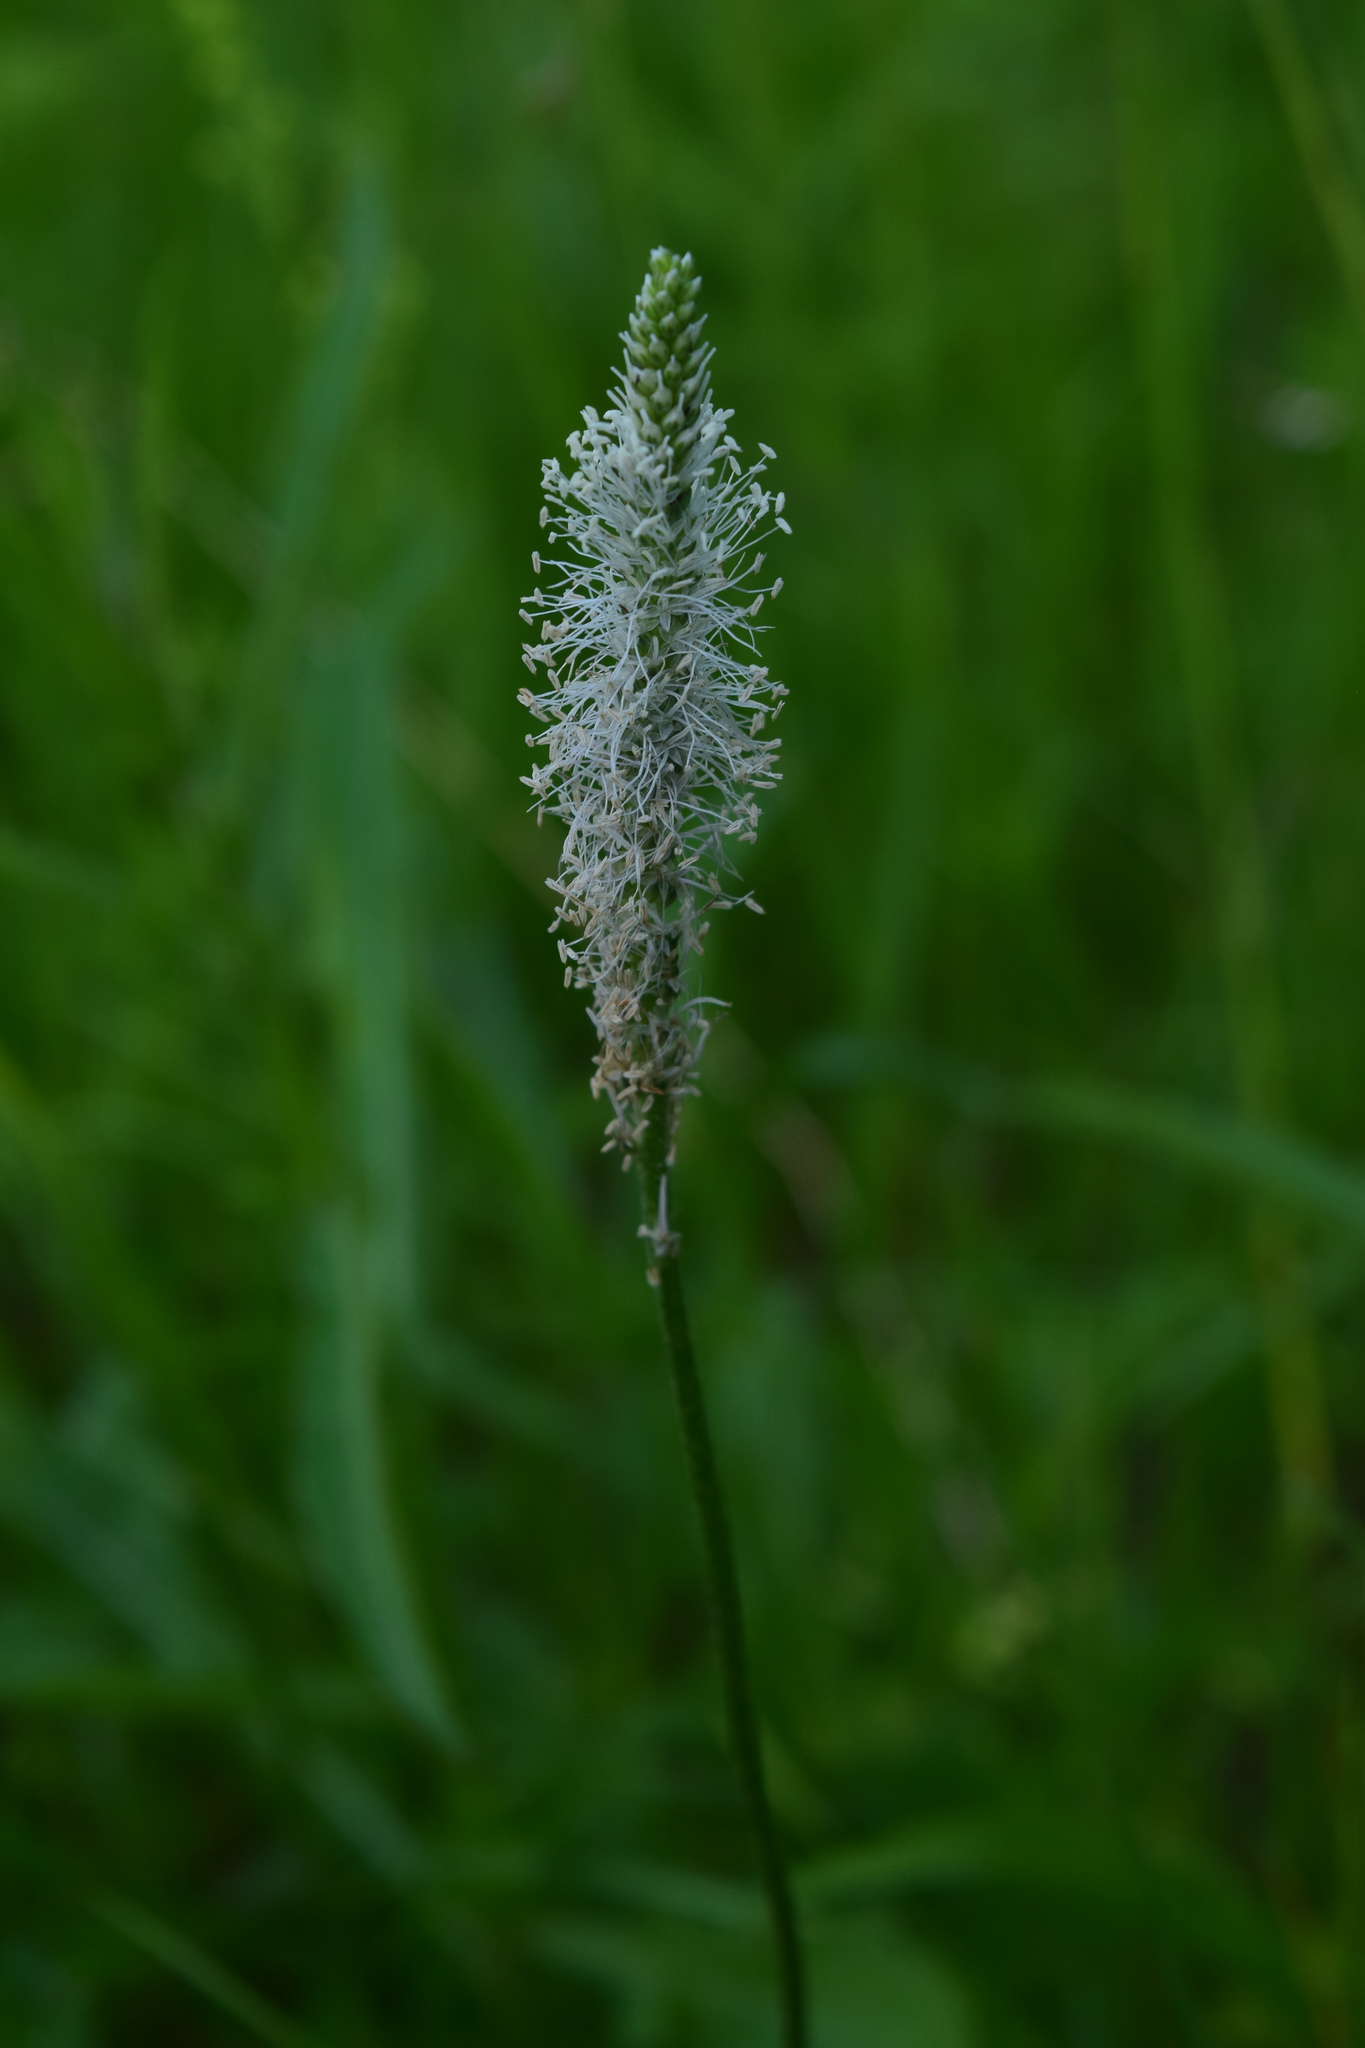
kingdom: Plantae
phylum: Tracheophyta
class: Magnoliopsida
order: Lamiales
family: Plantaginaceae
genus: Plantago
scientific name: Plantago media
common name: Hoary plantain
